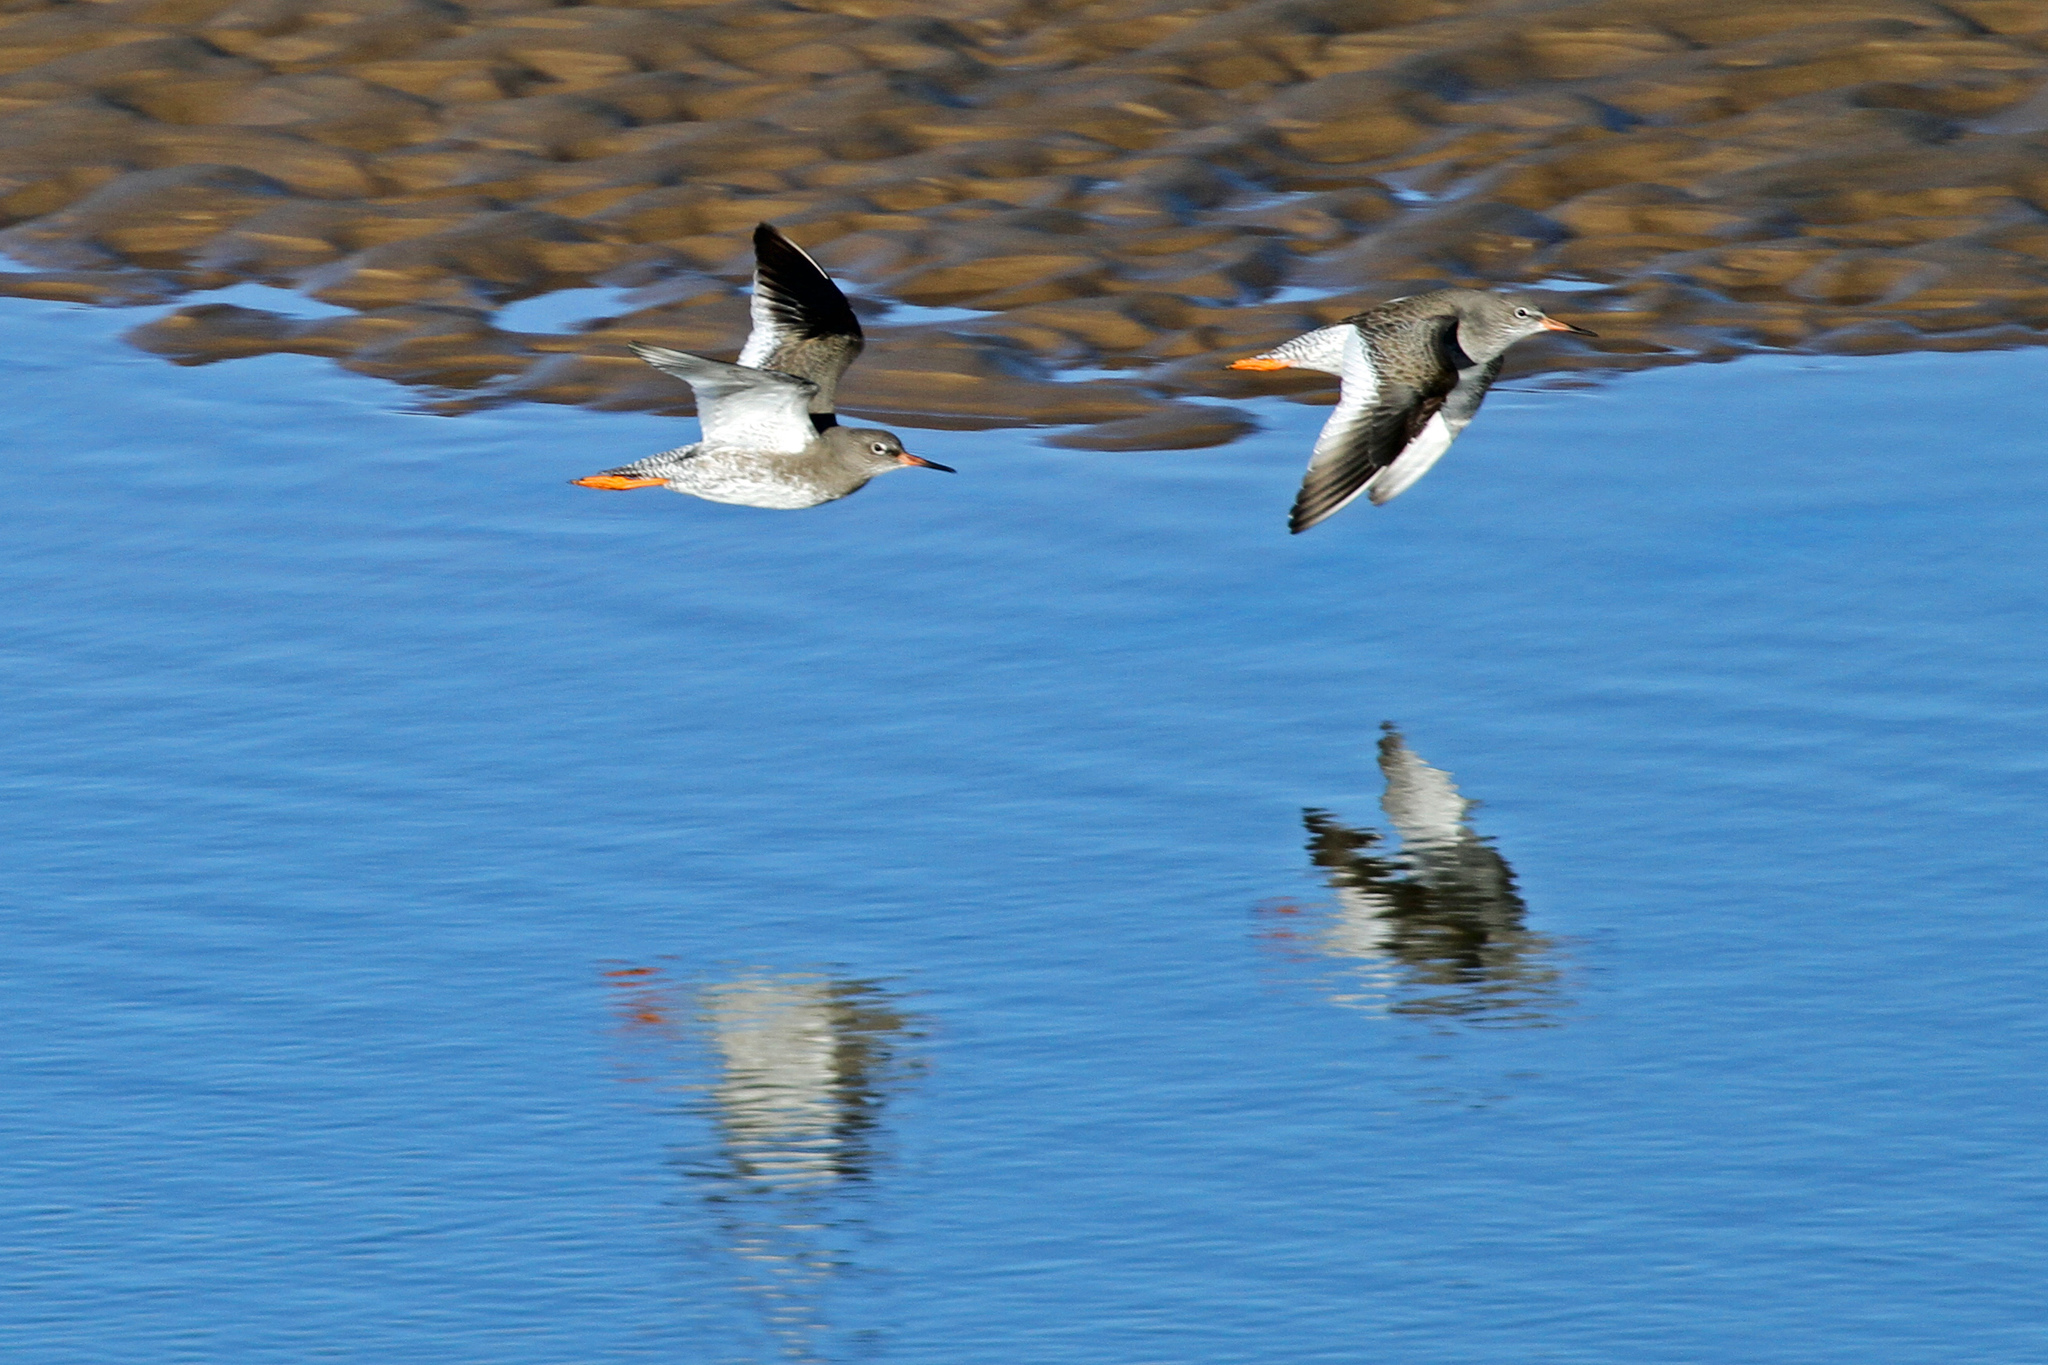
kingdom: Animalia
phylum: Chordata
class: Aves
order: Charadriiformes
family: Scolopacidae
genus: Tringa
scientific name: Tringa totanus
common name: Common redshank
